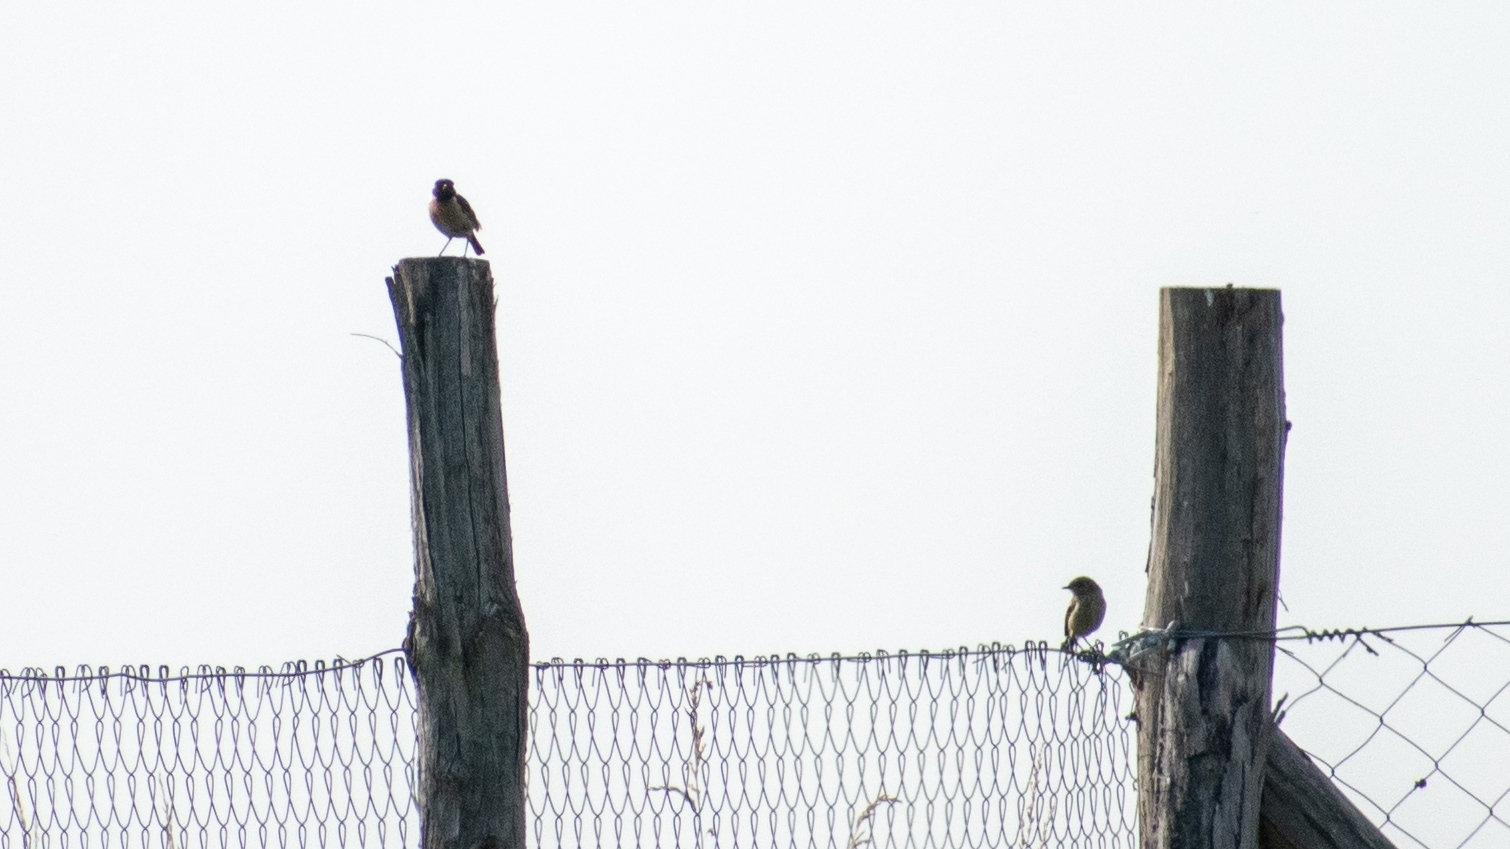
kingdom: Animalia
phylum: Chordata
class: Aves
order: Passeriformes
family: Muscicapidae
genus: Saxicola
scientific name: Saxicola rubicola
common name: European stonechat
